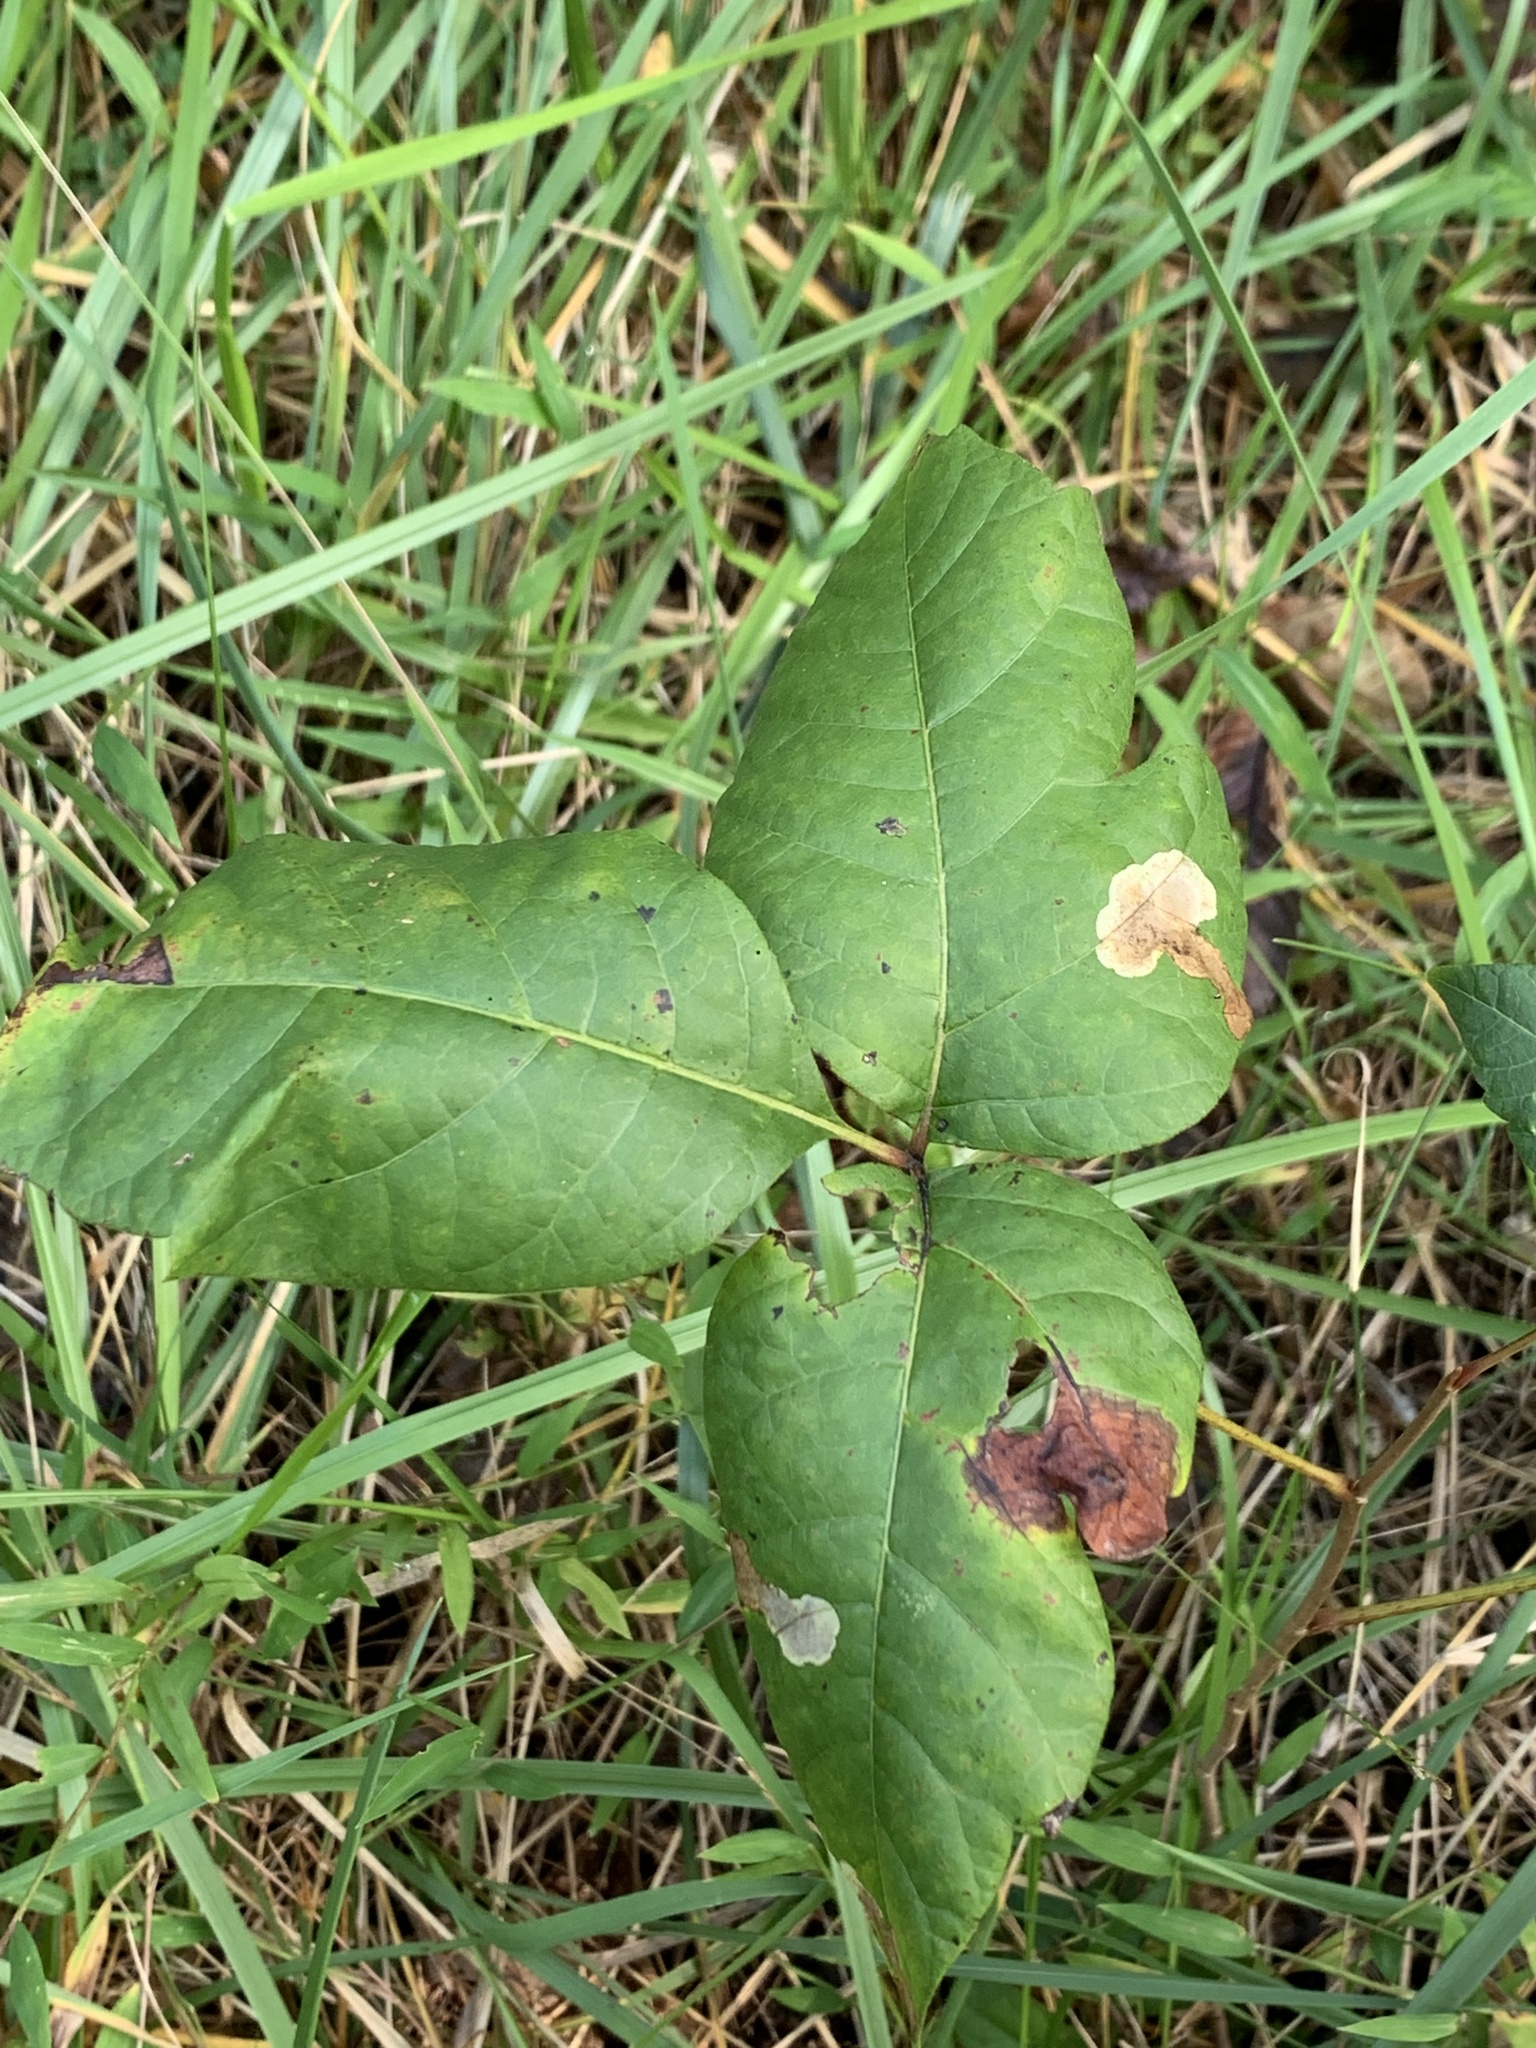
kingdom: Animalia
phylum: Arthropoda
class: Insecta
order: Lepidoptera
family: Gracillariidae
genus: Cameraria
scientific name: Cameraria guttifinitella
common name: Poison ivy leaf-miner moth
